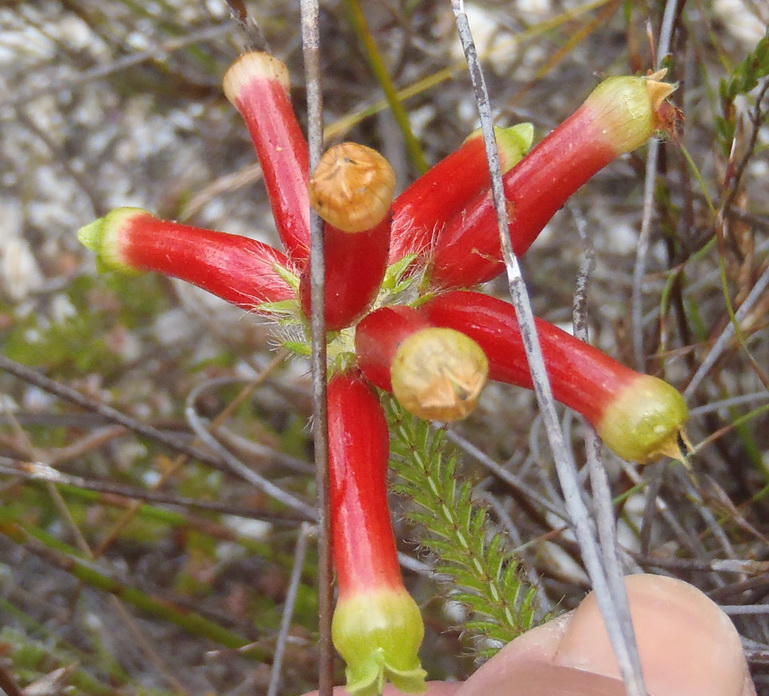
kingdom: Plantae
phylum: Tracheophyta
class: Magnoliopsida
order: Ericales
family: Ericaceae
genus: Erica
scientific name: Erica massonii
